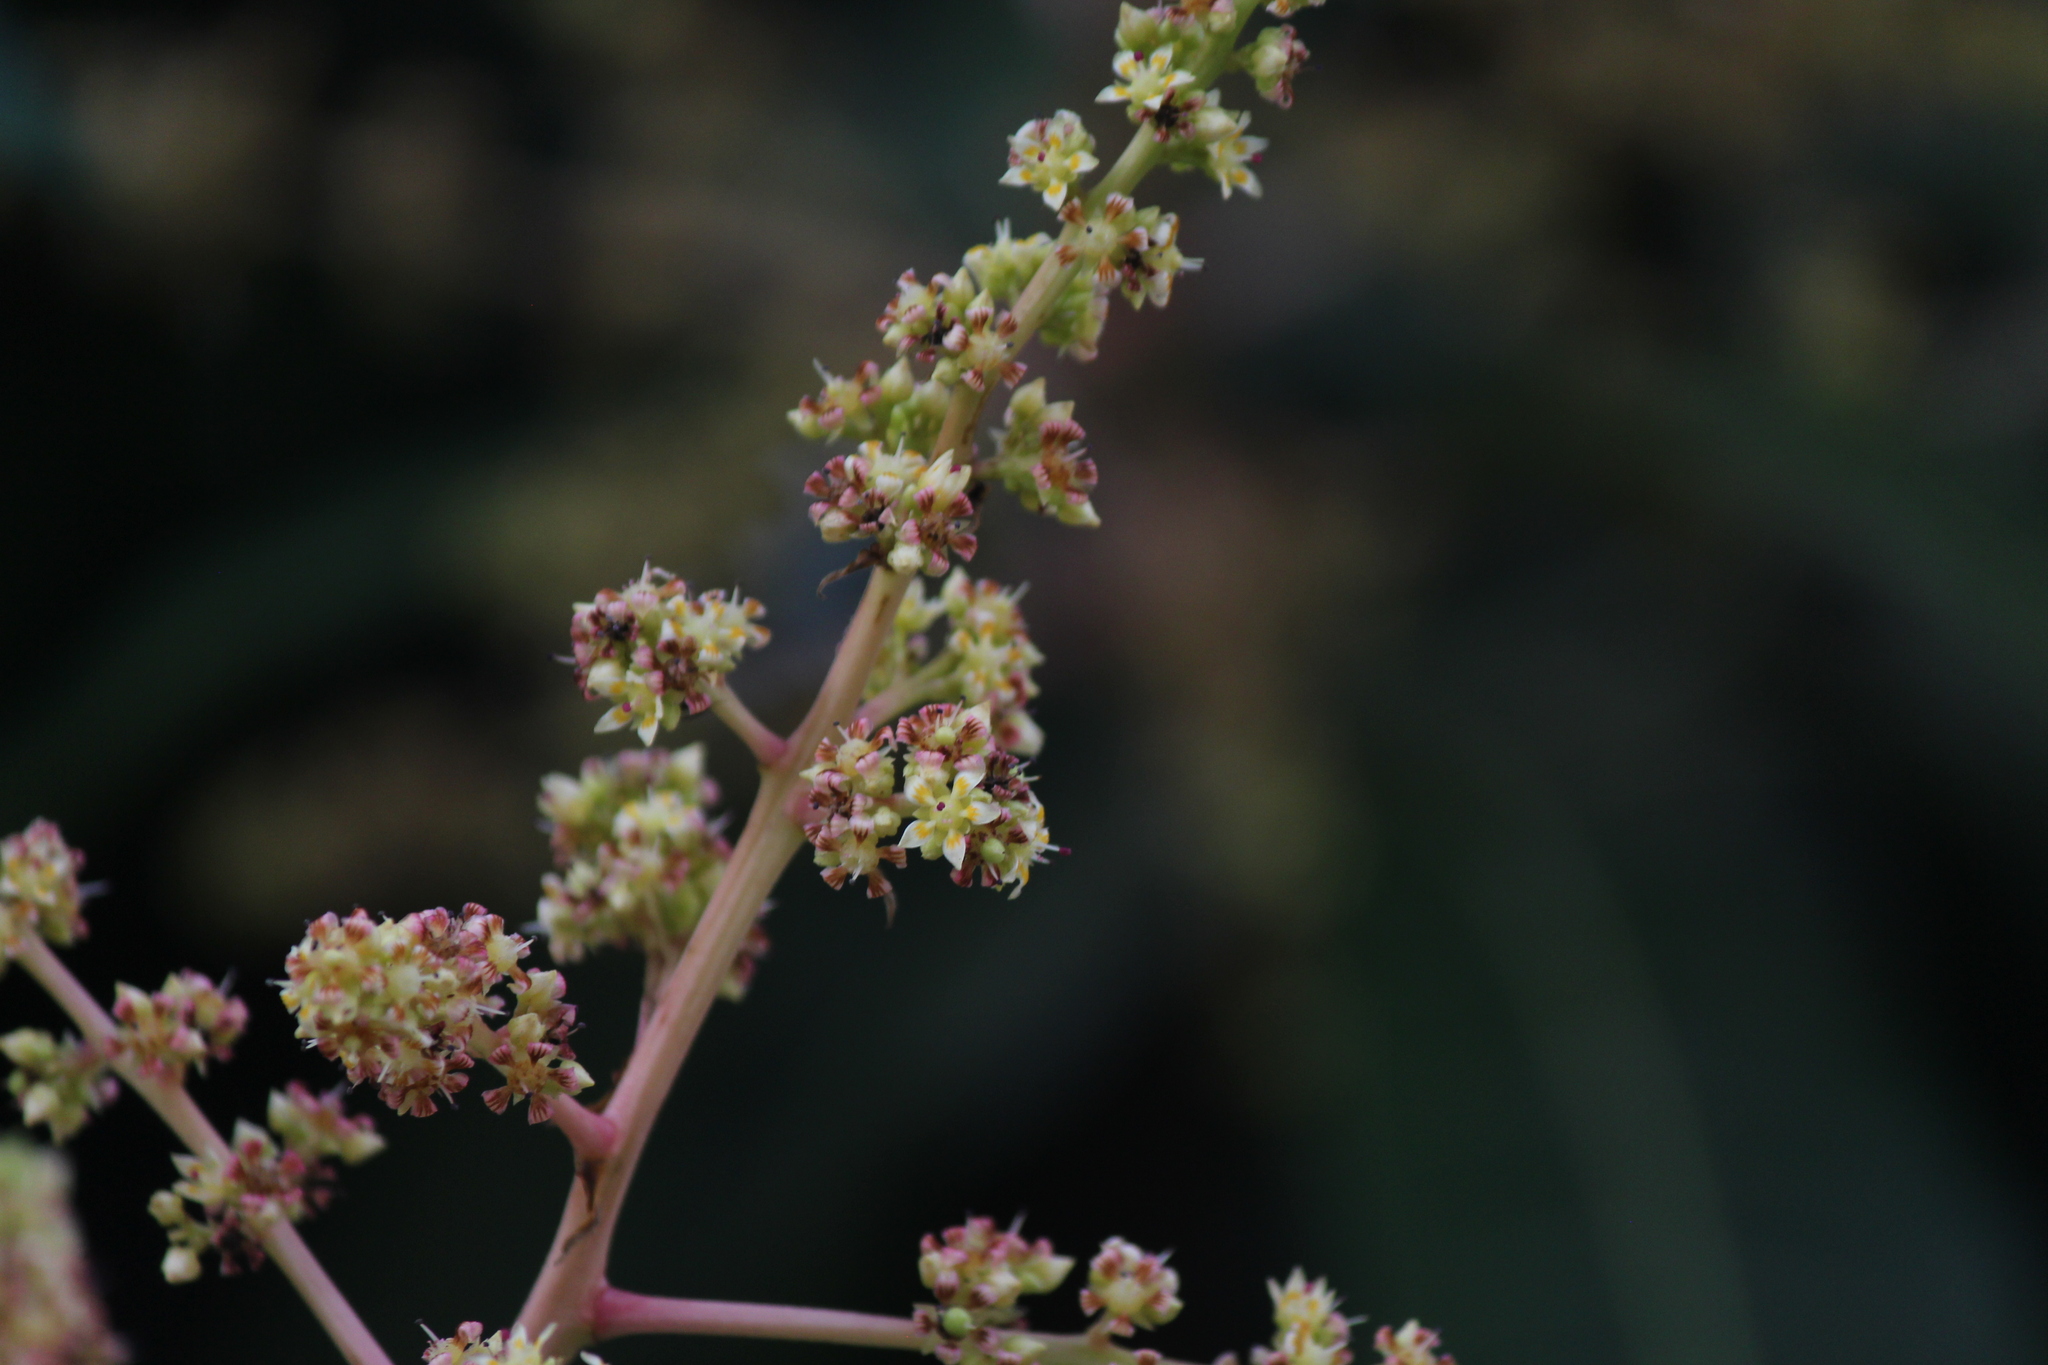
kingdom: Plantae
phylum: Tracheophyta
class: Magnoliopsida
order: Sapindales
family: Anacardiaceae
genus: Mangifera
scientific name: Mangifera indica
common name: Mango
